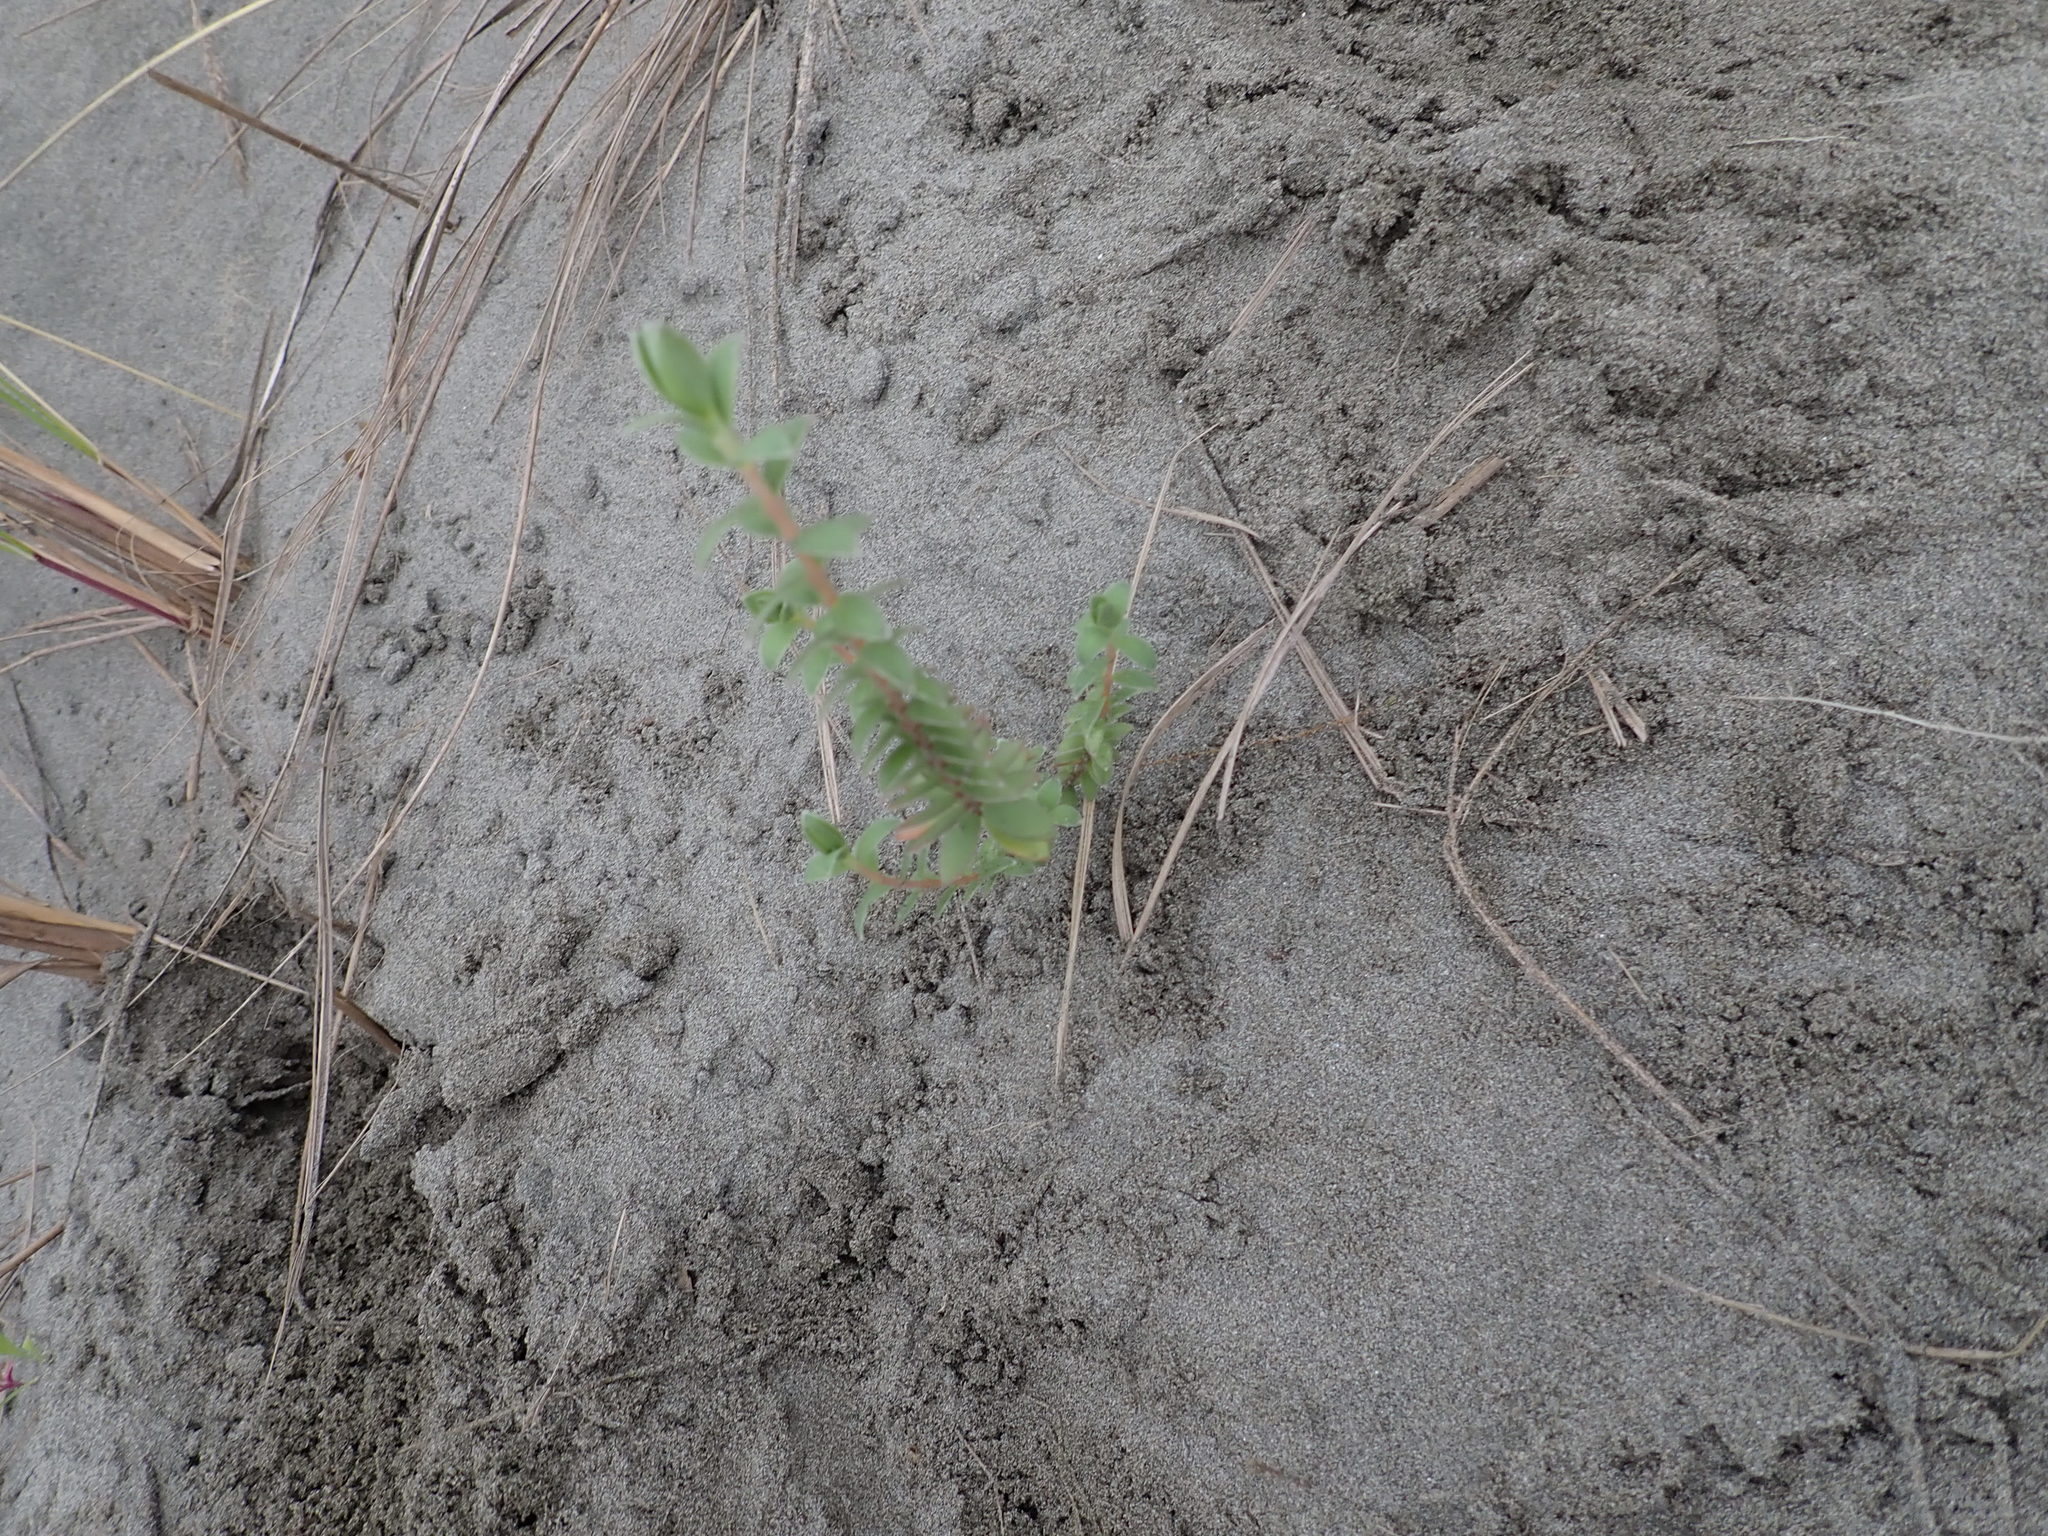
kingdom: Plantae
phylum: Tracheophyta
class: Magnoliopsida
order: Malvales
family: Thymelaeaceae
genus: Pimelea
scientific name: Pimelea villosa
